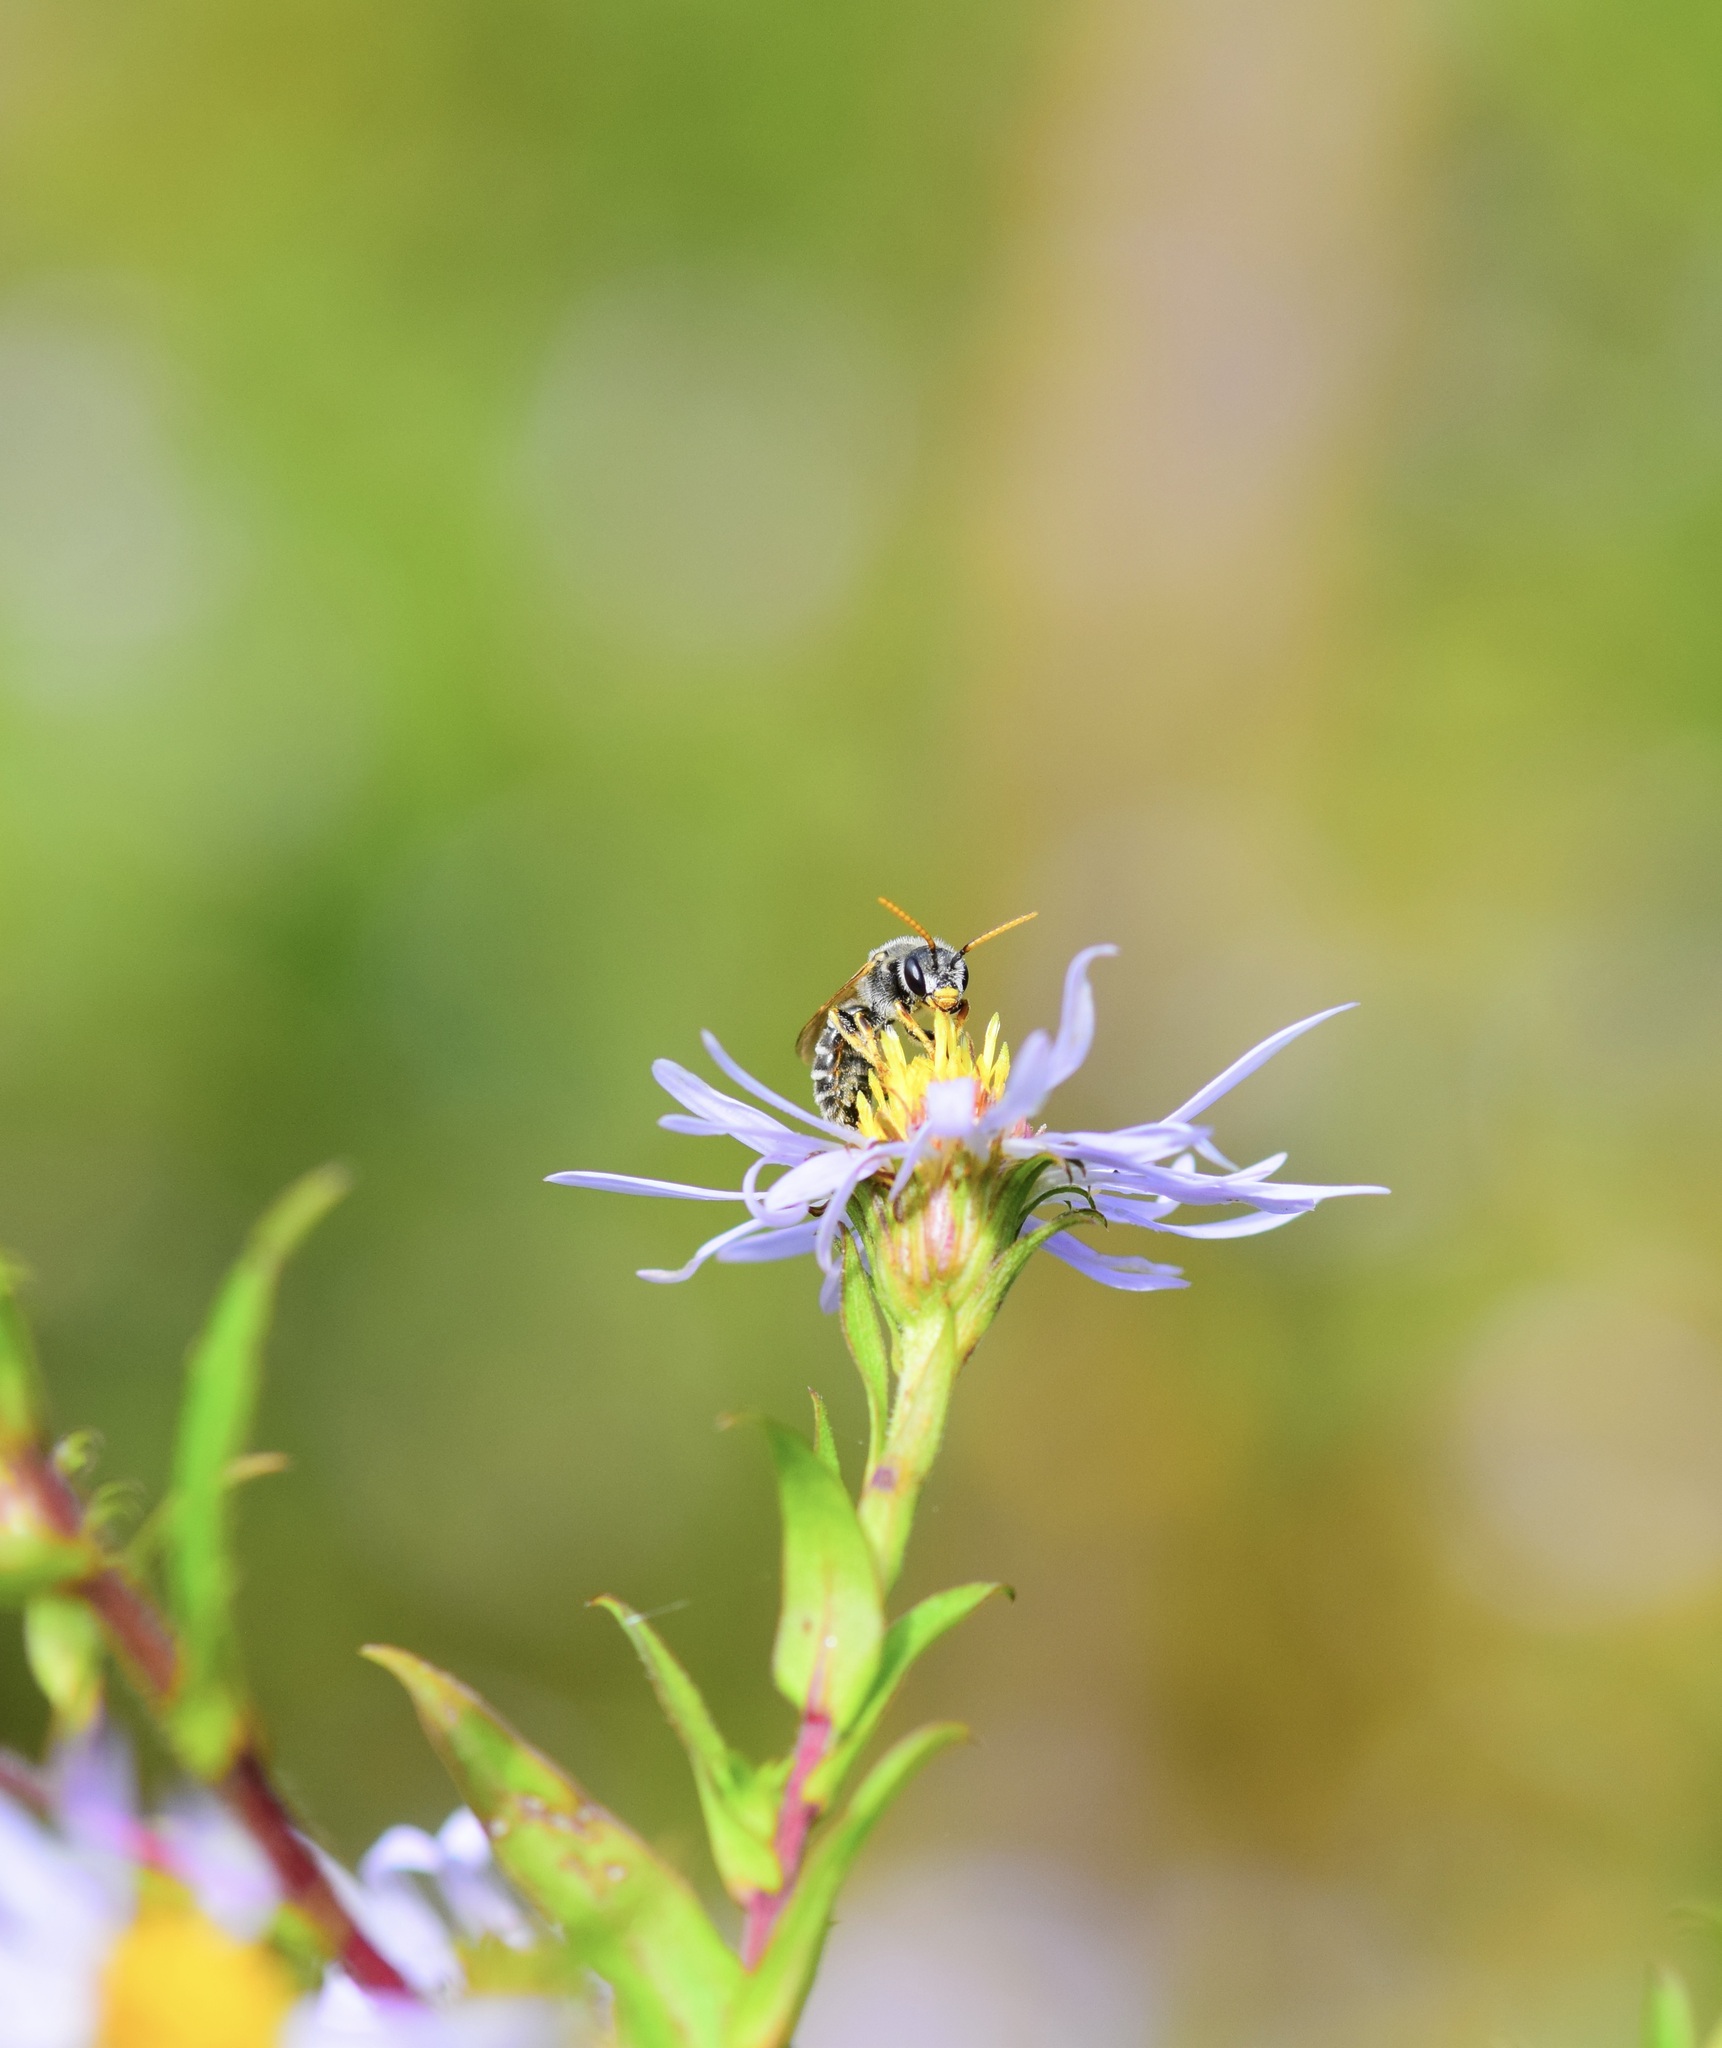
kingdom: Animalia
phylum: Arthropoda
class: Insecta
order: Hymenoptera
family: Halictidae
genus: Halictus
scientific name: Halictus ligatus
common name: Ligated furrow bee
